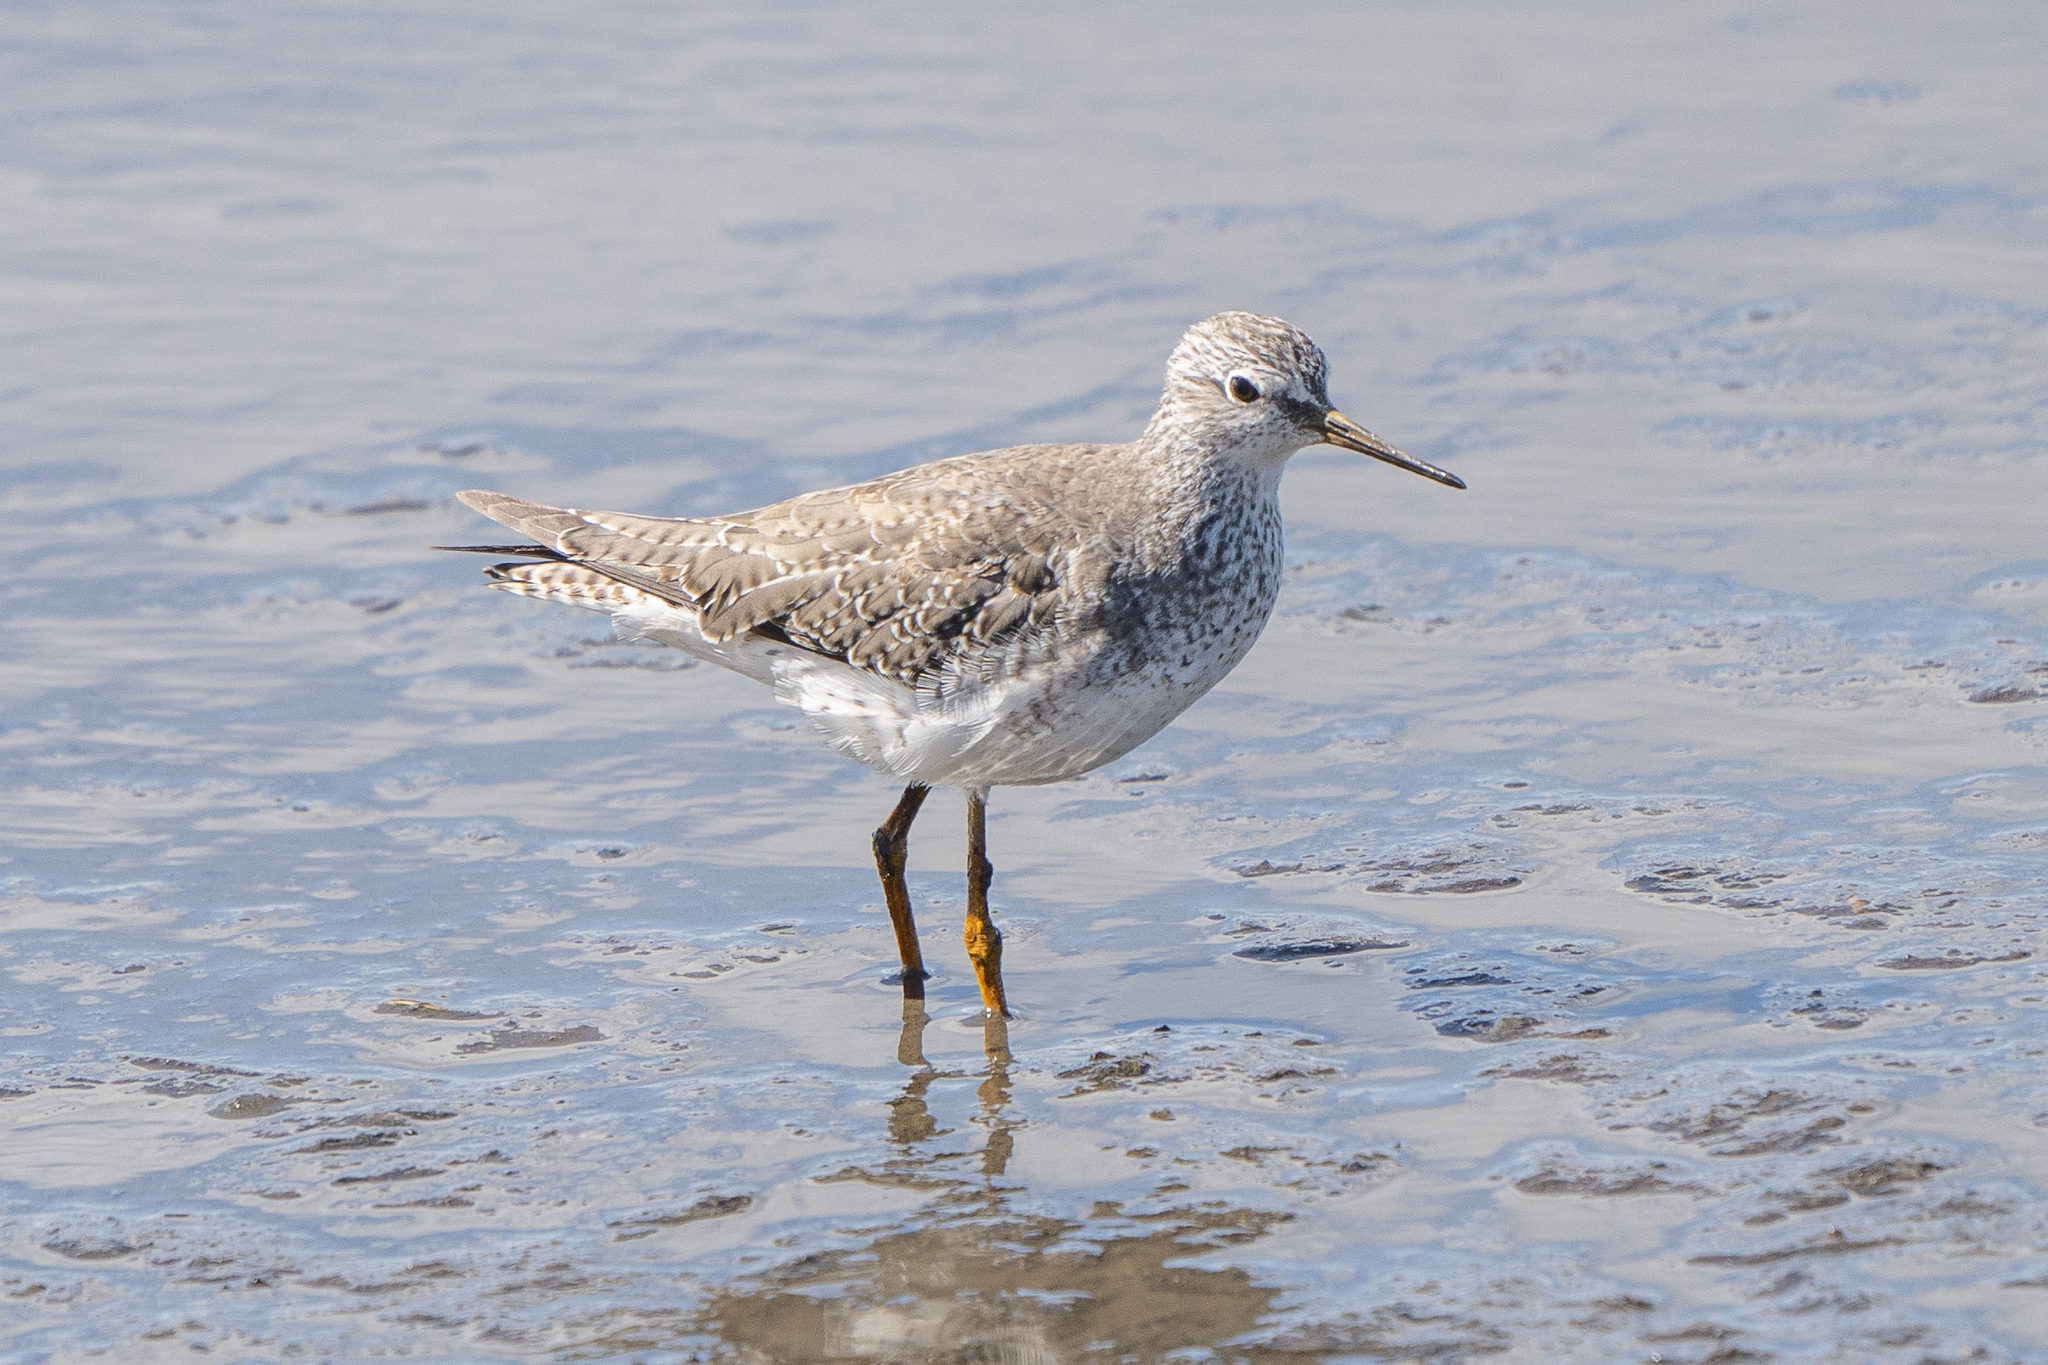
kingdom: Animalia
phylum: Chordata
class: Aves
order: Charadriiformes
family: Scolopacidae
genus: Tringa
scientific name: Tringa flavipes
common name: Lesser yellowlegs
